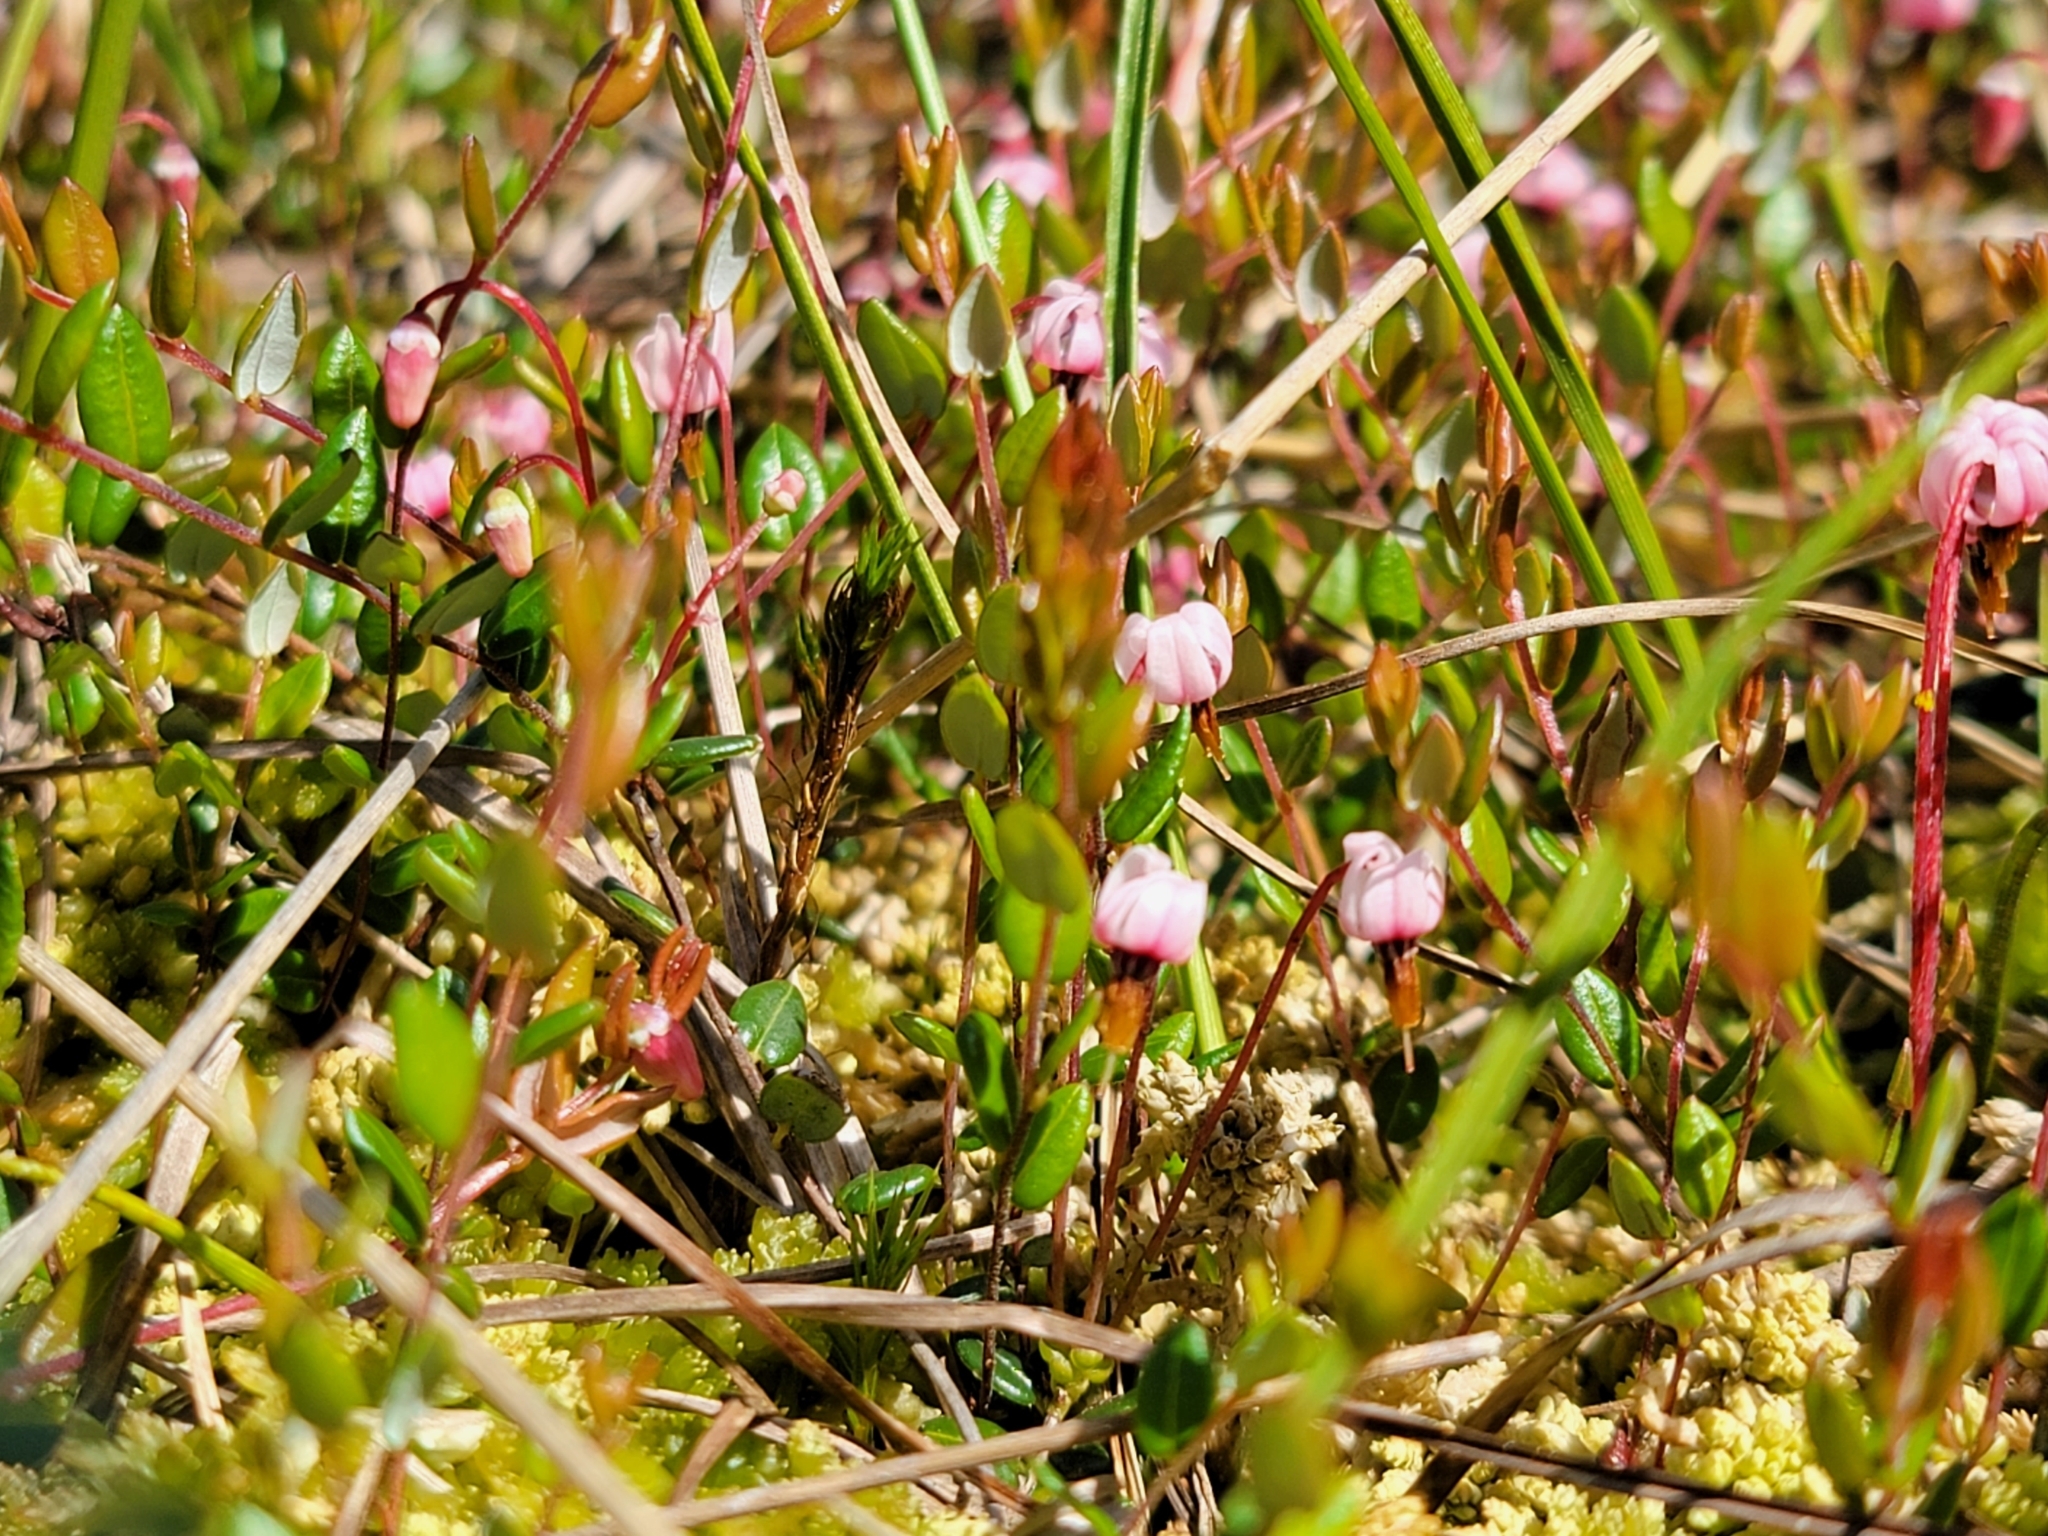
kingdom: Plantae
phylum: Tracheophyta
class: Magnoliopsida
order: Ericales
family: Ericaceae
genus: Vaccinium
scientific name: Vaccinium oxycoccos
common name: Cranberry
